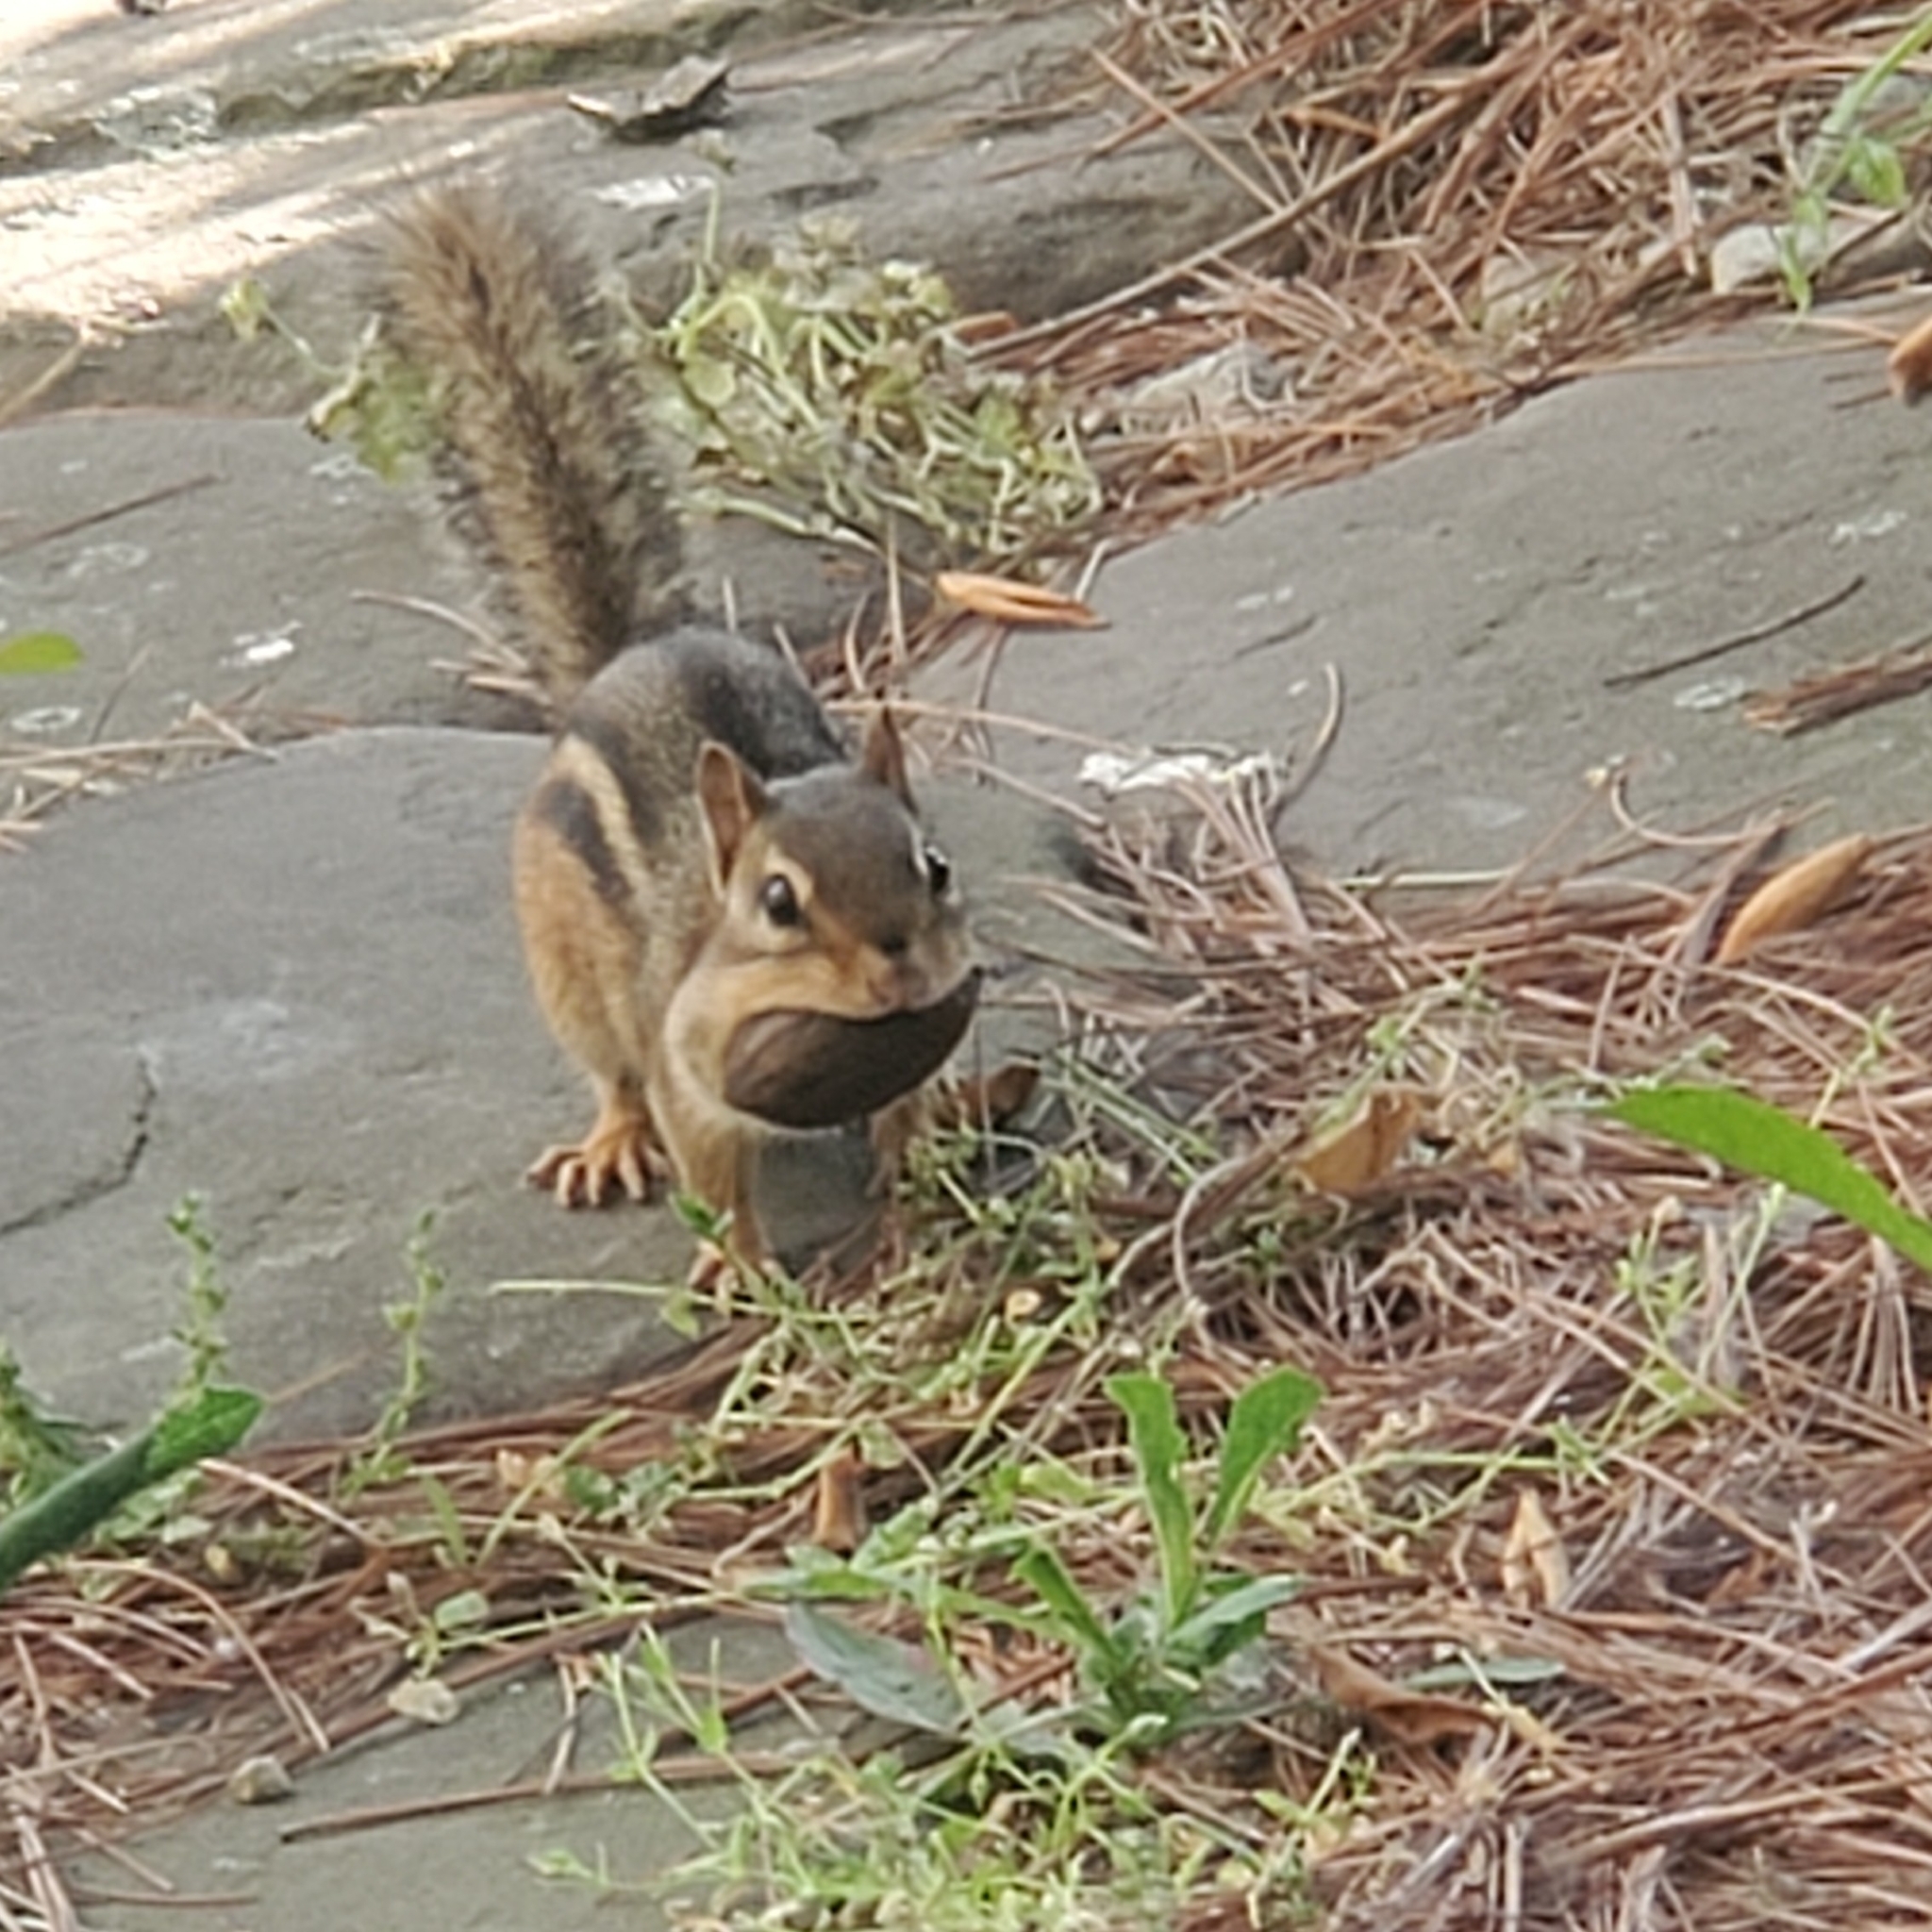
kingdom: Animalia
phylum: Chordata
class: Mammalia
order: Rodentia
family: Sciuridae
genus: Tamias
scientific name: Tamias striatus
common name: Eastern chipmunk
